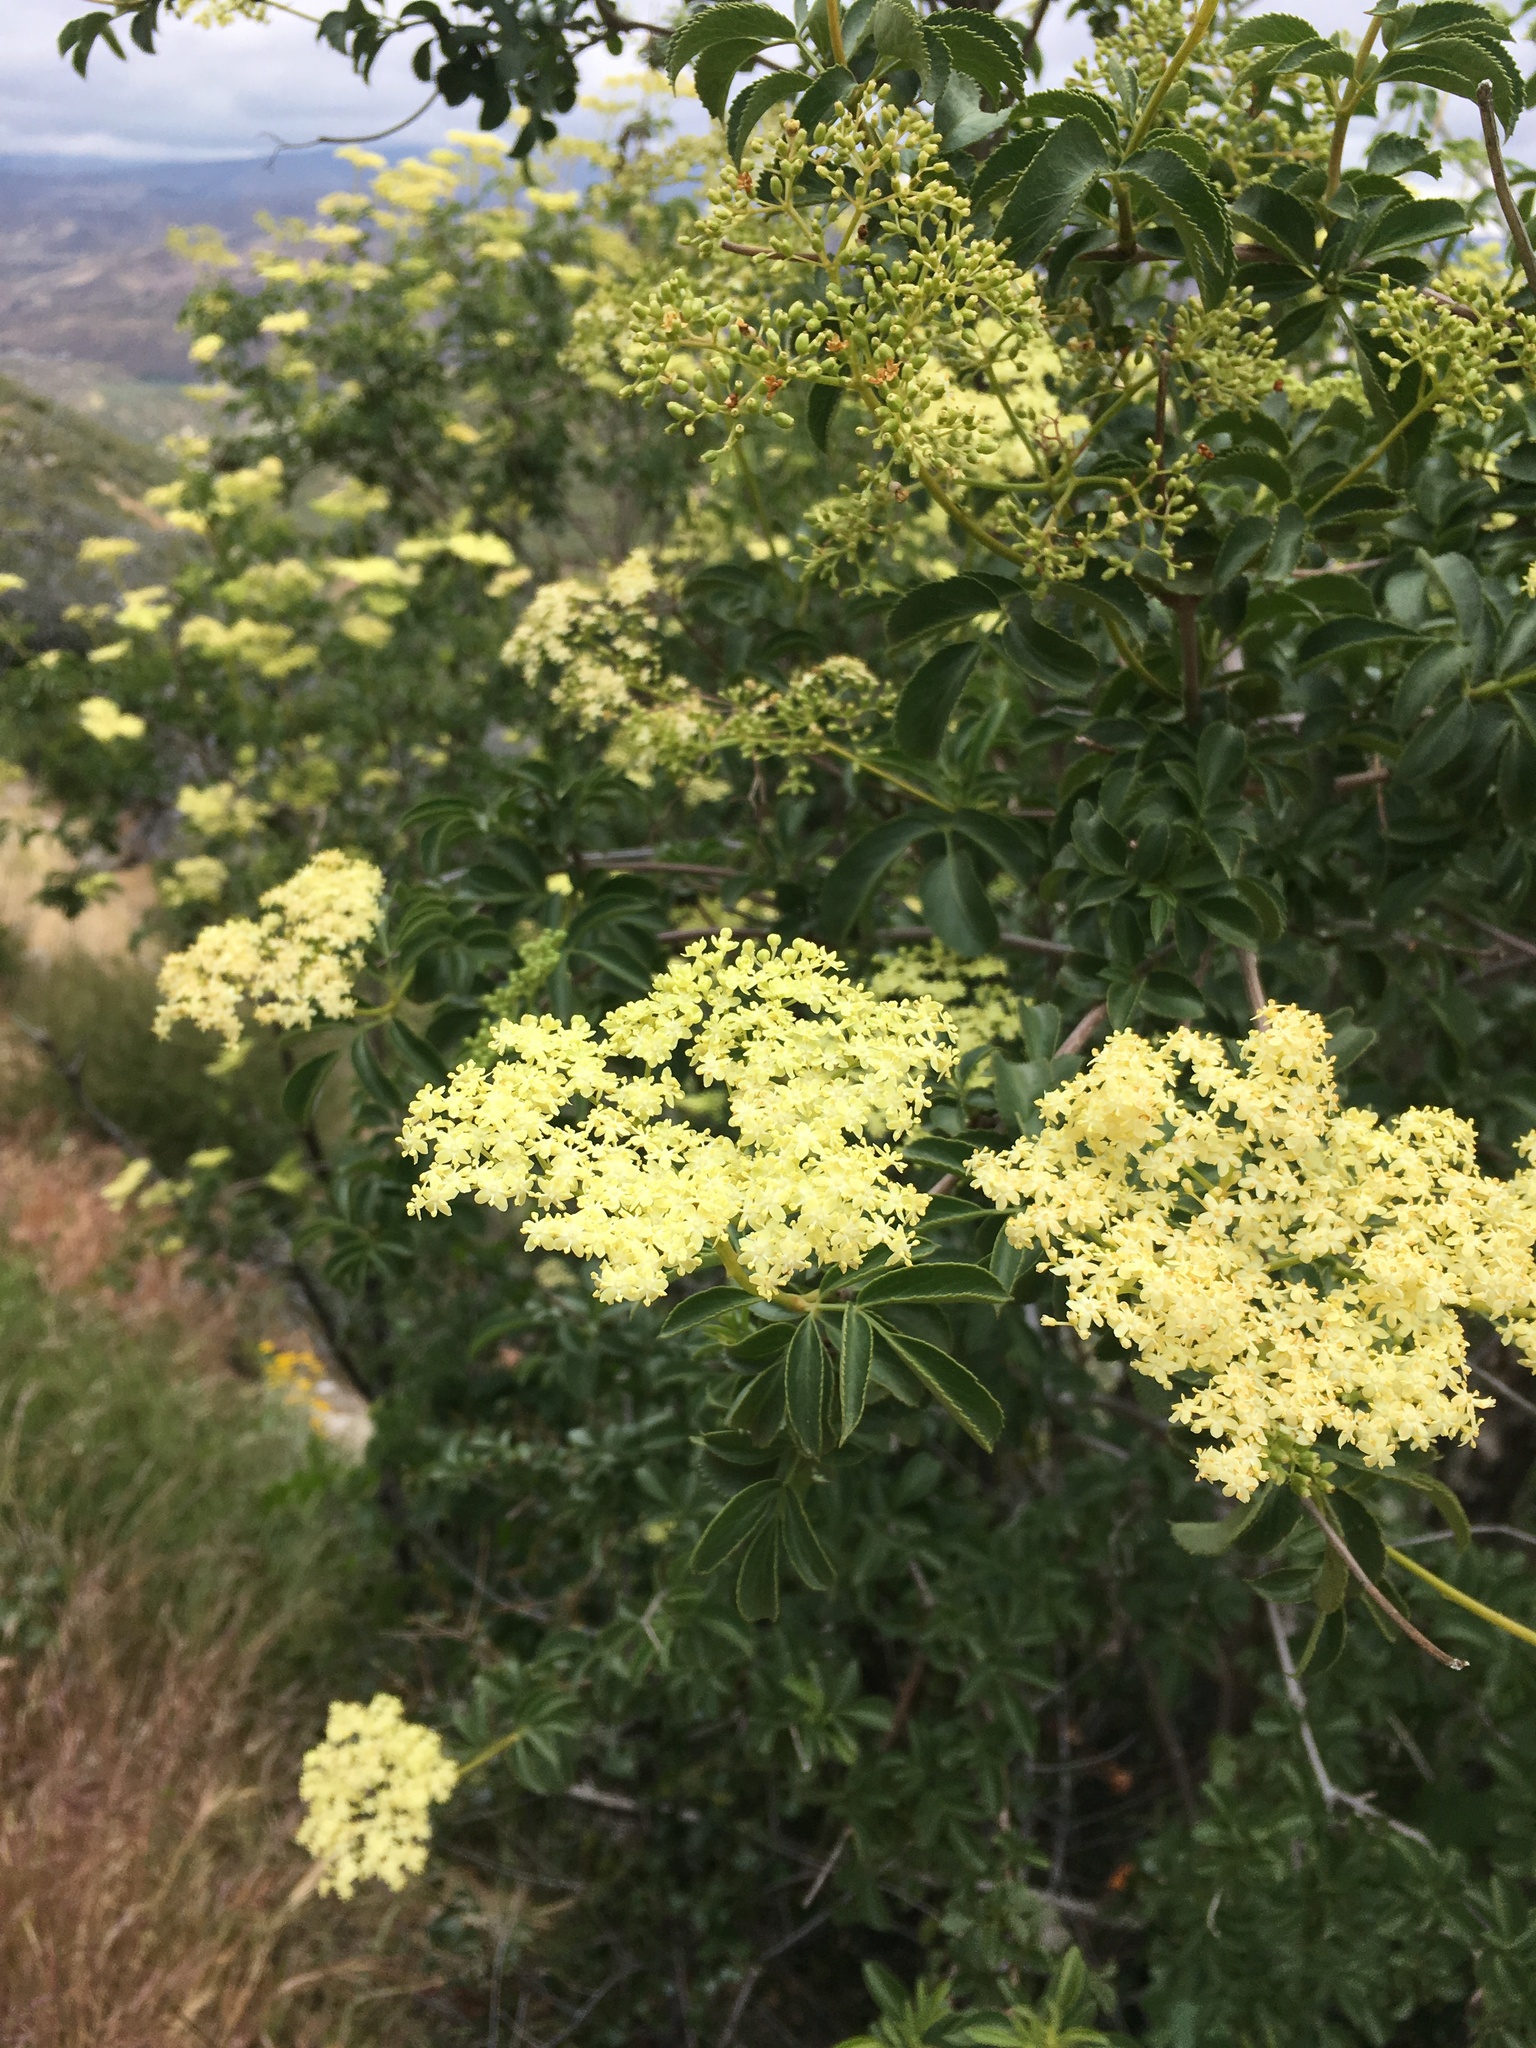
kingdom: Plantae
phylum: Tracheophyta
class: Magnoliopsida
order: Dipsacales
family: Viburnaceae
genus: Sambucus
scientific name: Sambucus cerulea
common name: Blue elder
